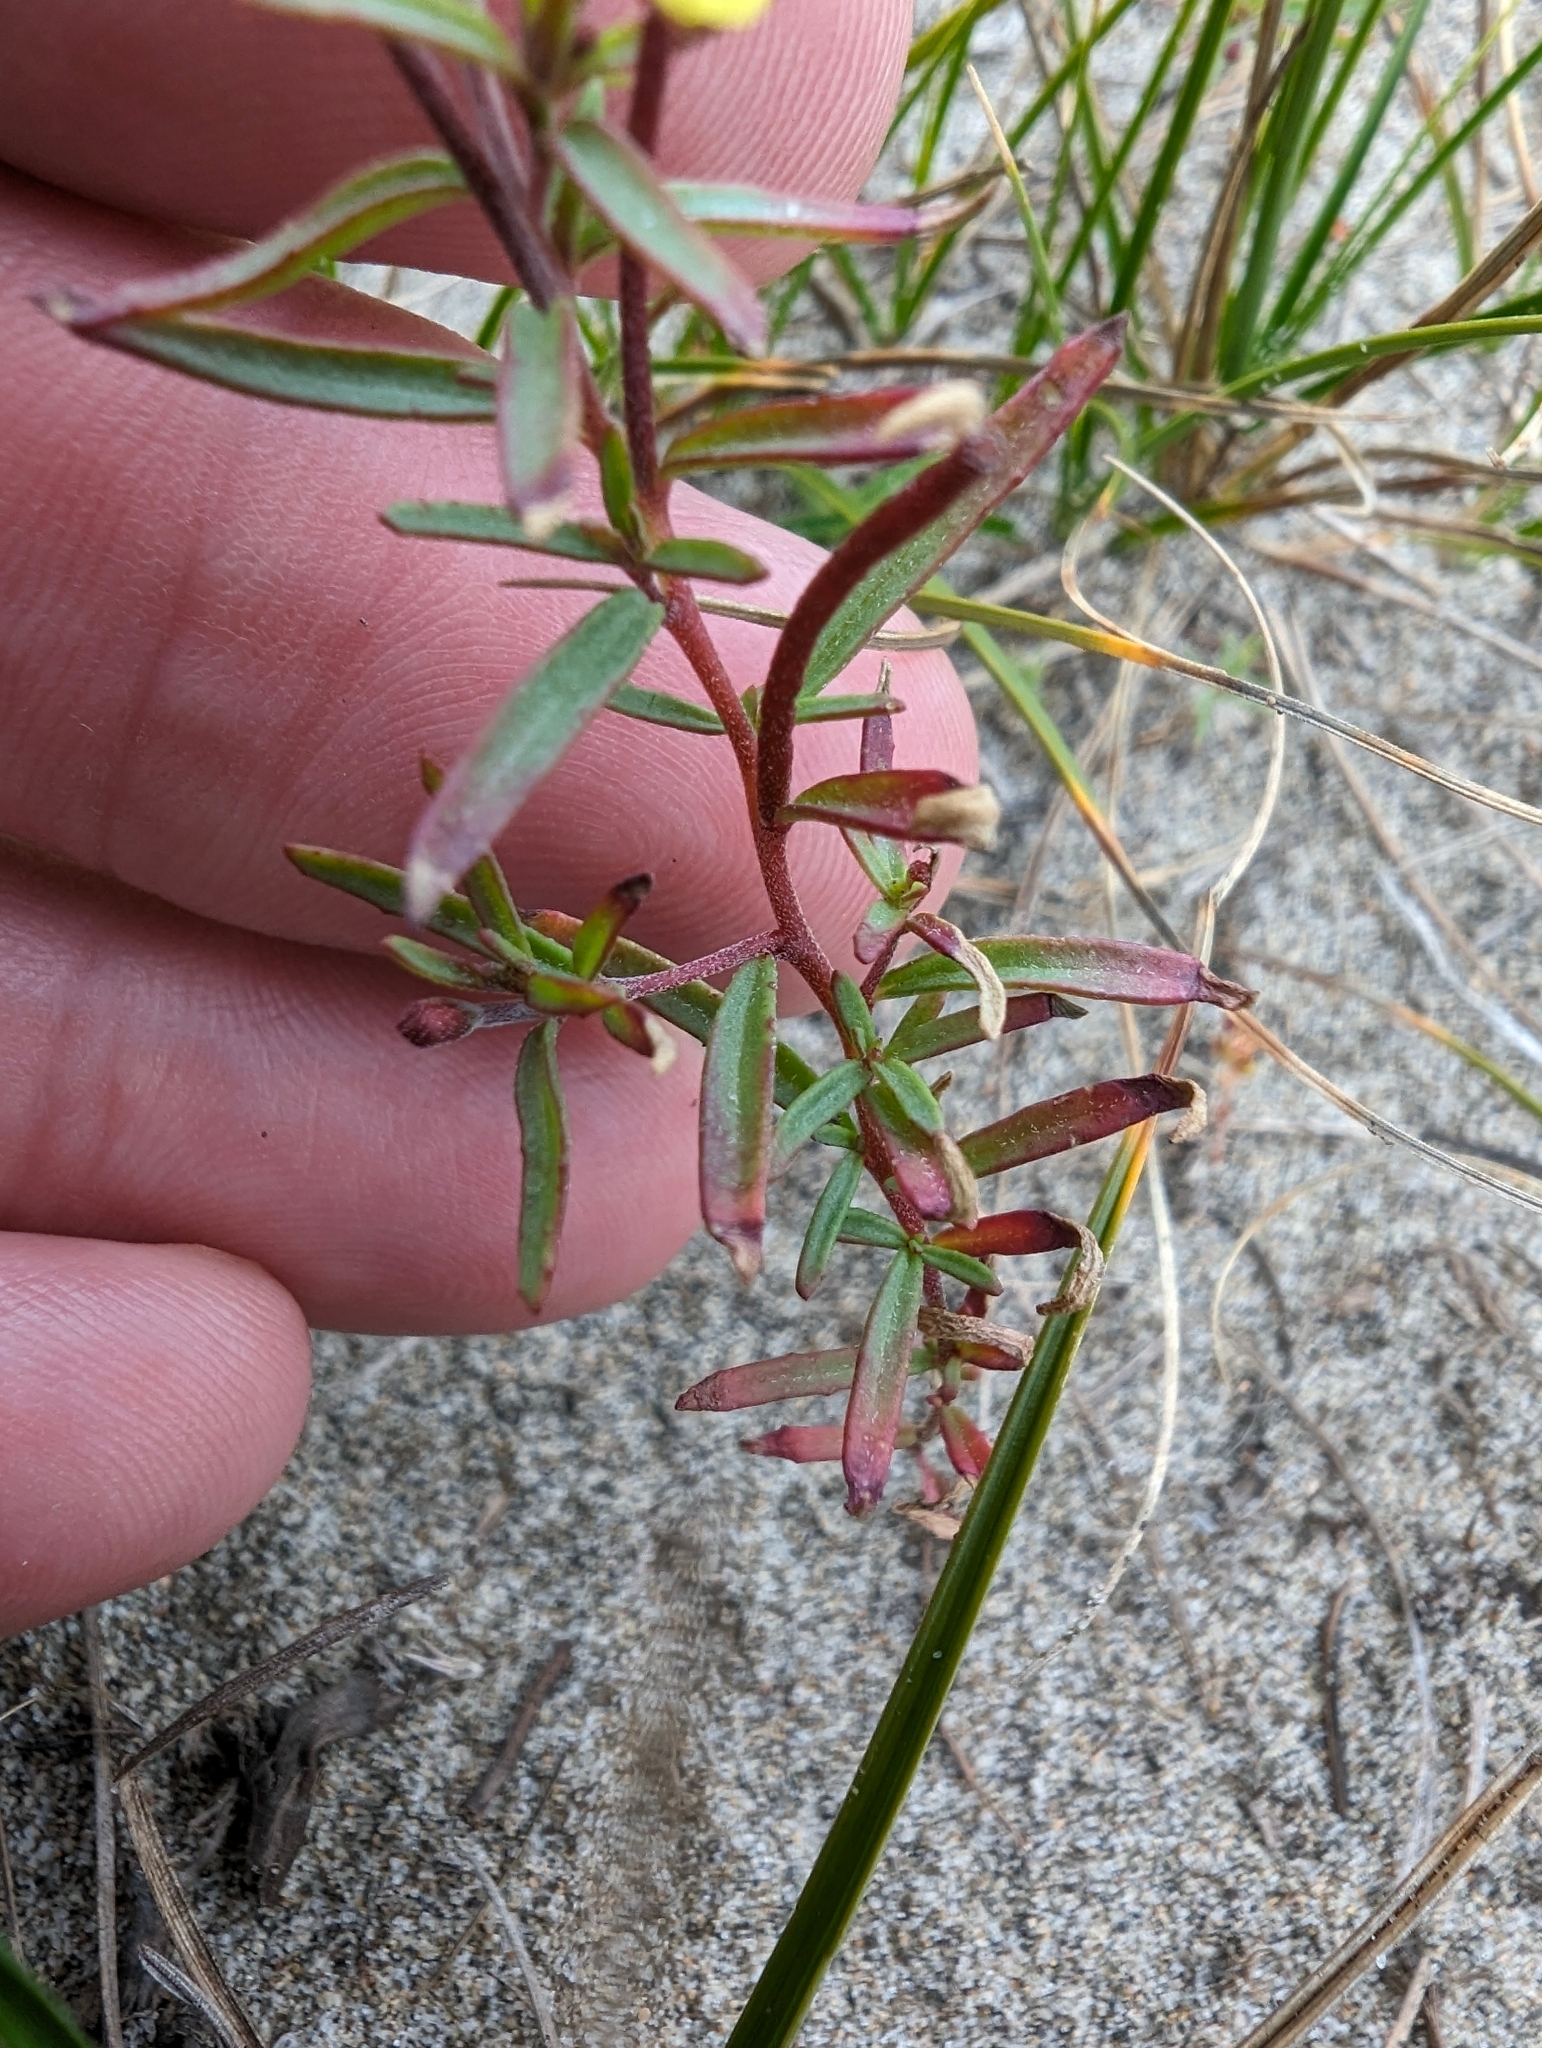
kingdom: Plantae
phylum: Tracheophyta
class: Magnoliopsida
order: Myrtales
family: Onagraceae
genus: Camissonia
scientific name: Camissonia strigulosa
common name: Contorted-primrose
